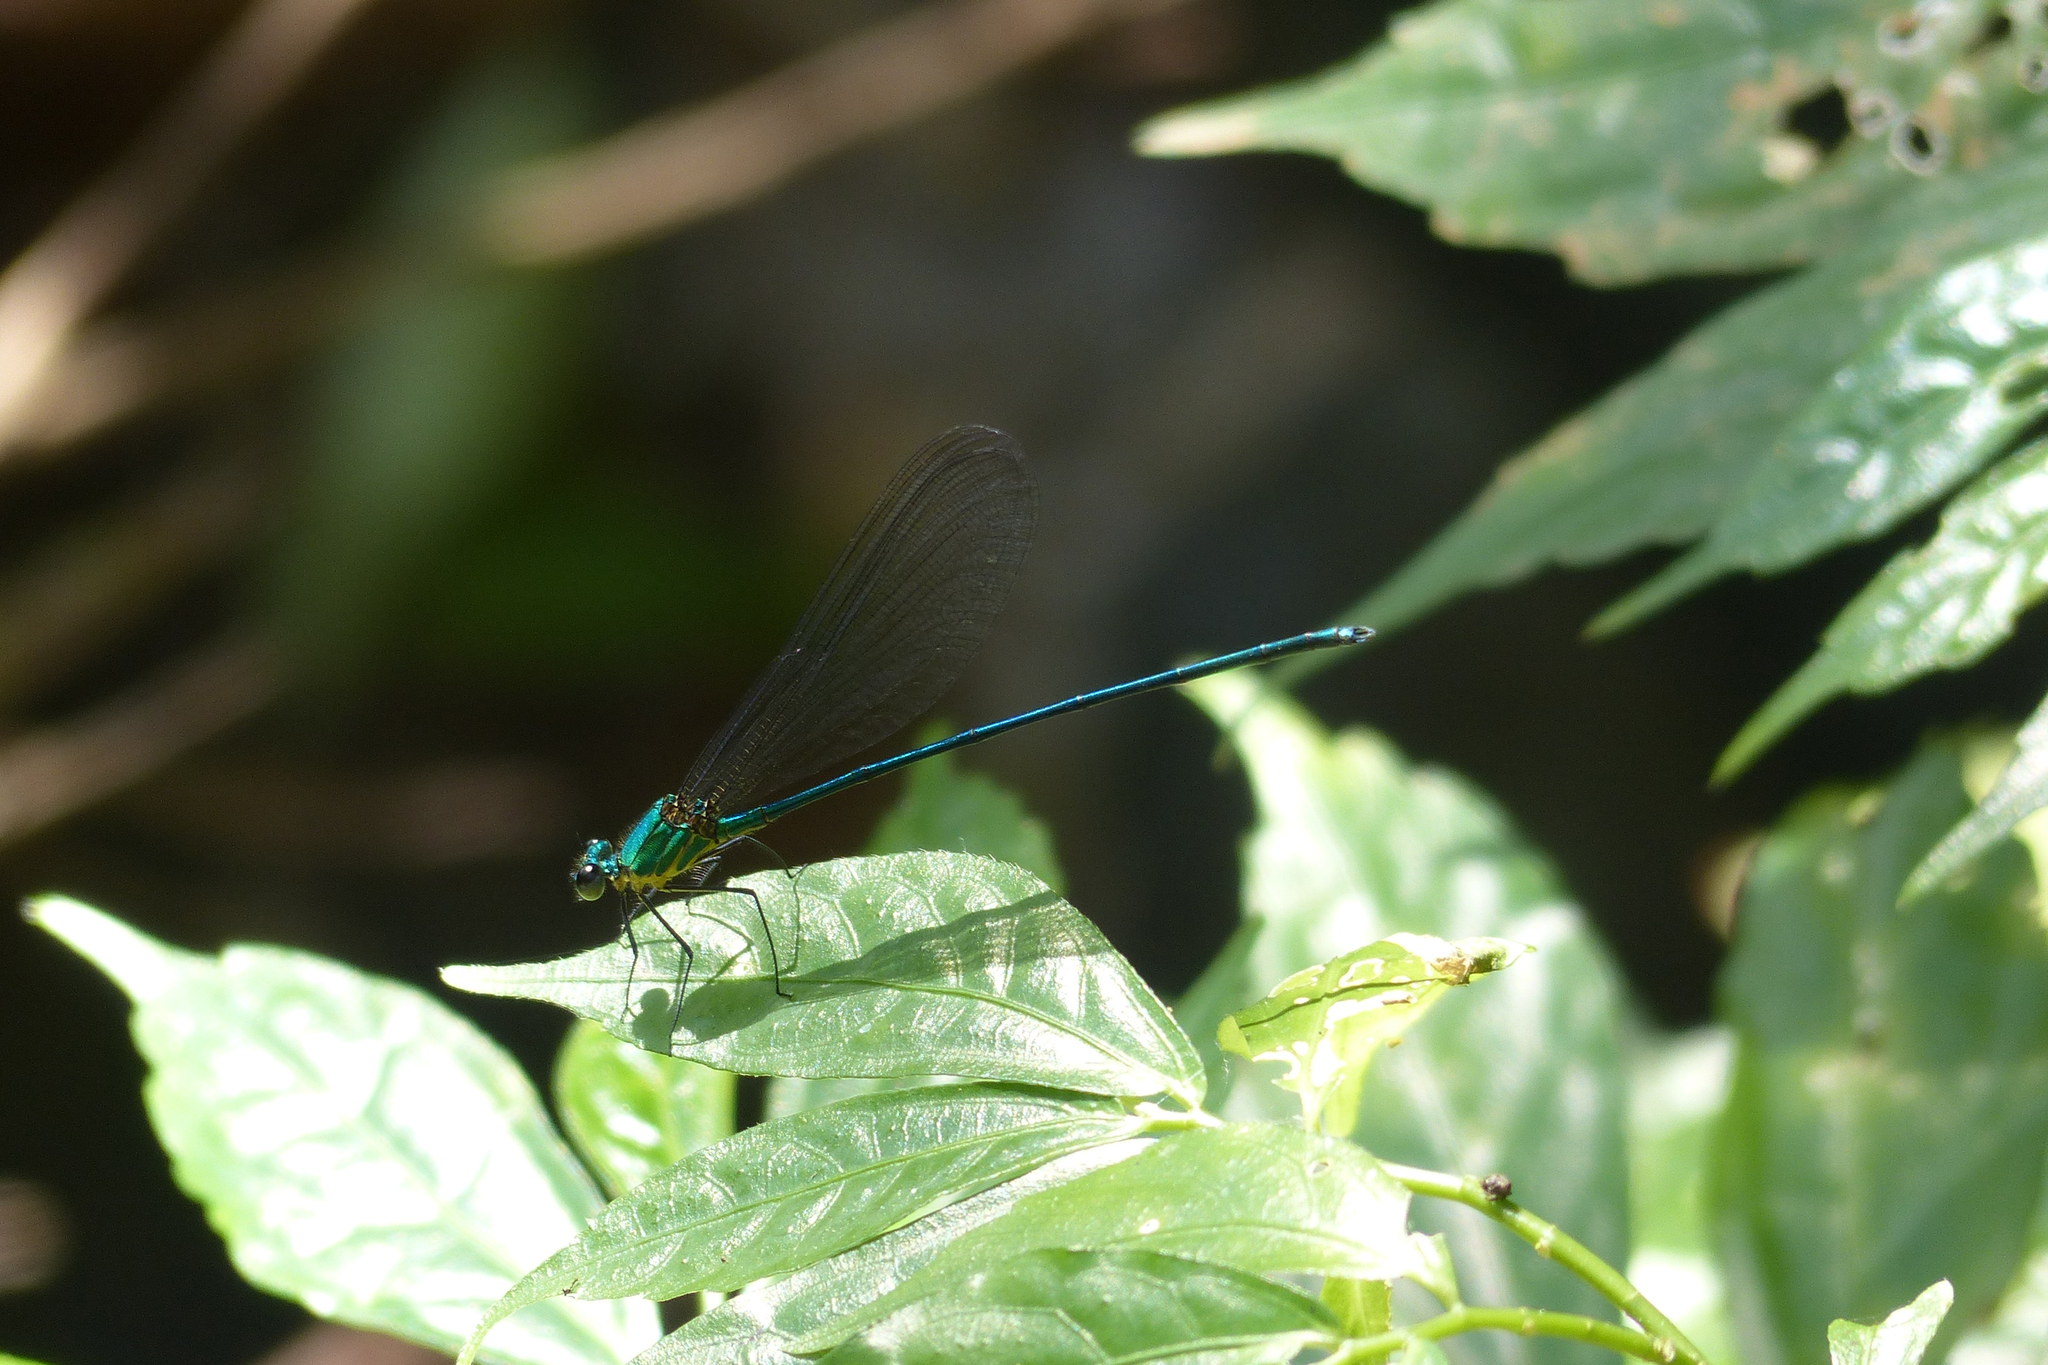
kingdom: Animalia
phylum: Arthropoda
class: Insecta
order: Odonata
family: Calopterygidae
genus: Vestalis
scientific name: Vestalis gracilis
